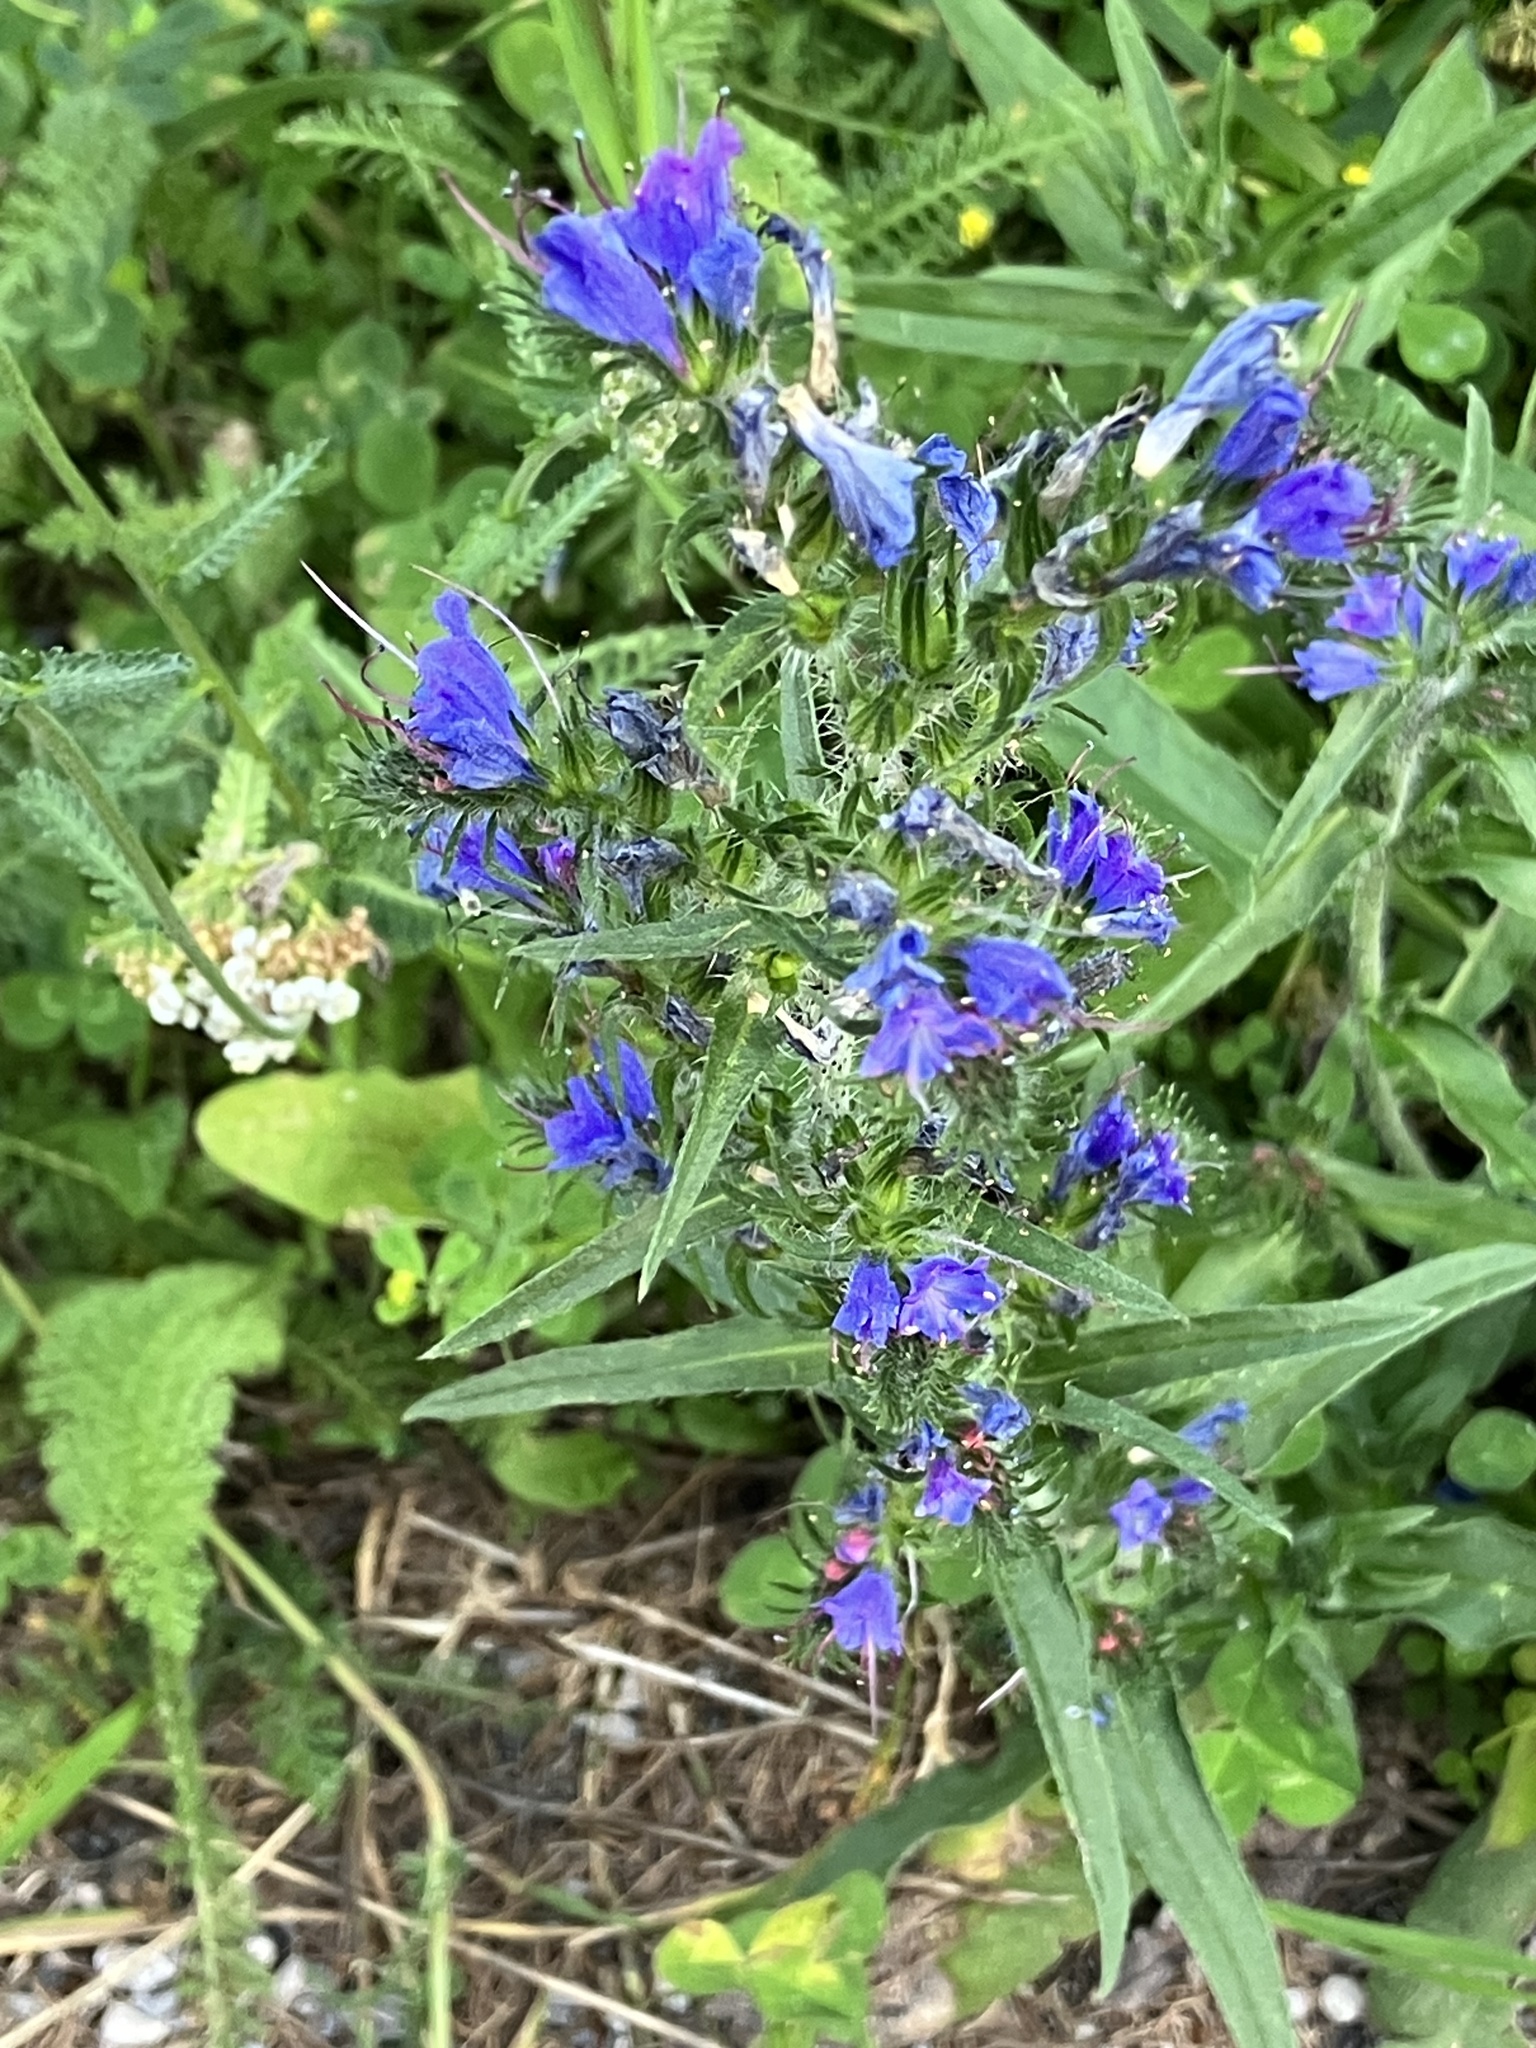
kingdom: Plantae
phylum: Tracheophyta
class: Magnoliopsida
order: Boraginales
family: Boraginaceae
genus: Echium
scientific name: Echium vulgare
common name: Common viper's bugloss
